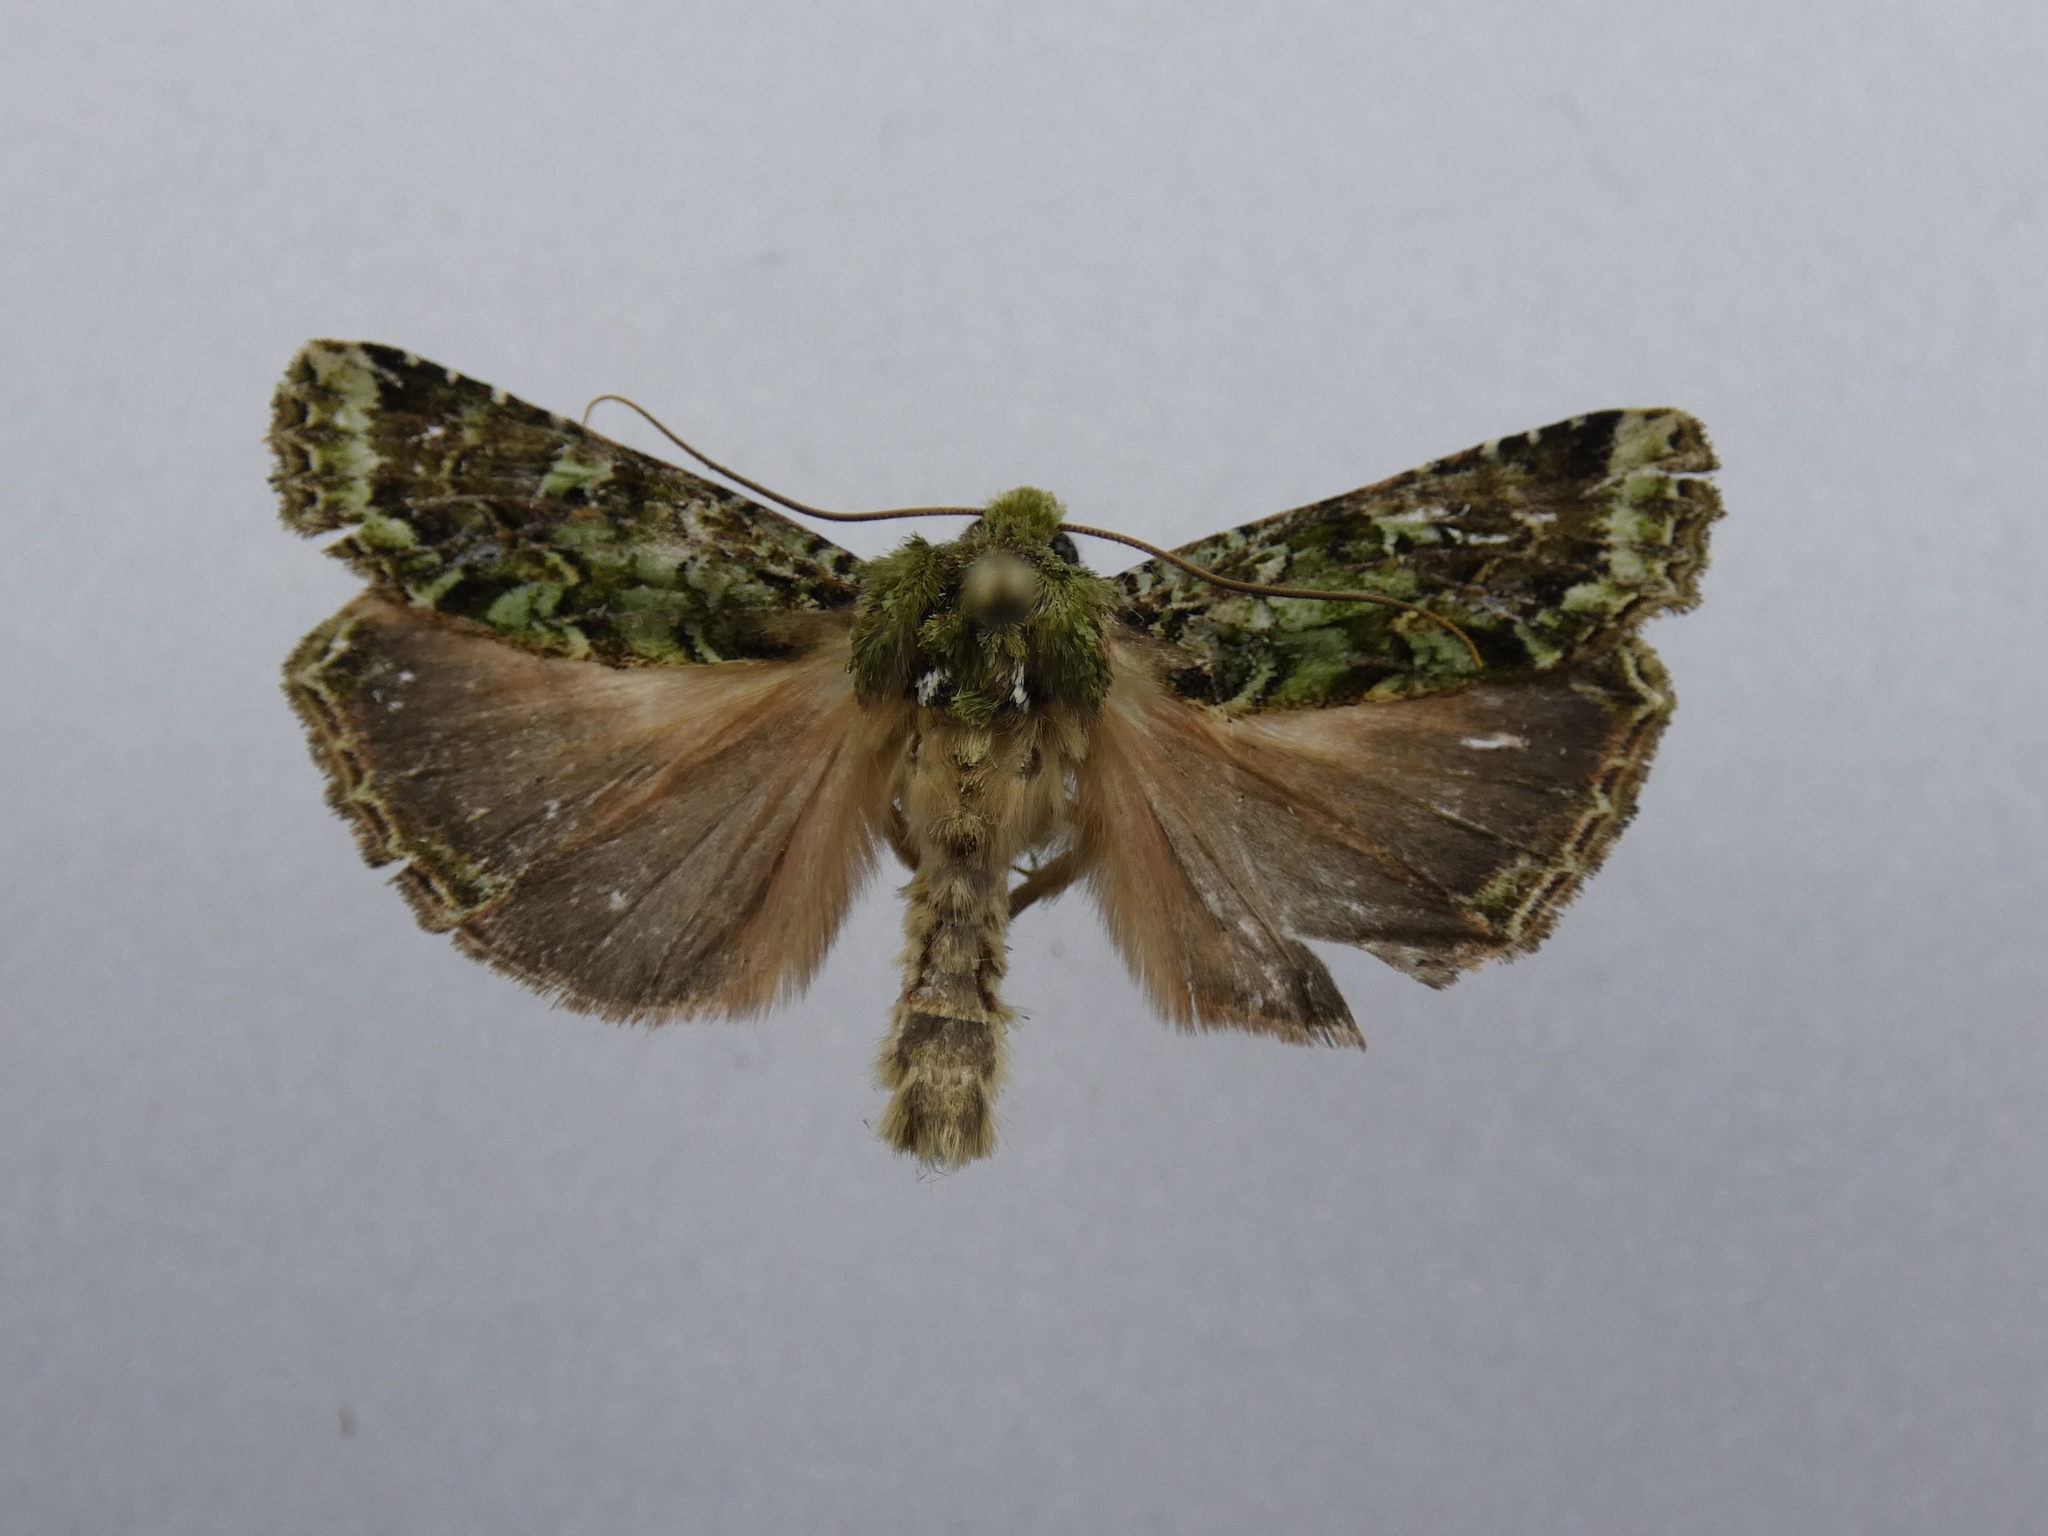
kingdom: Animalia
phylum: Arthropoda
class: Insecta
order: Lepidoptera
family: Noctuidae
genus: Feredayia
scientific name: Feredayia grammosa
